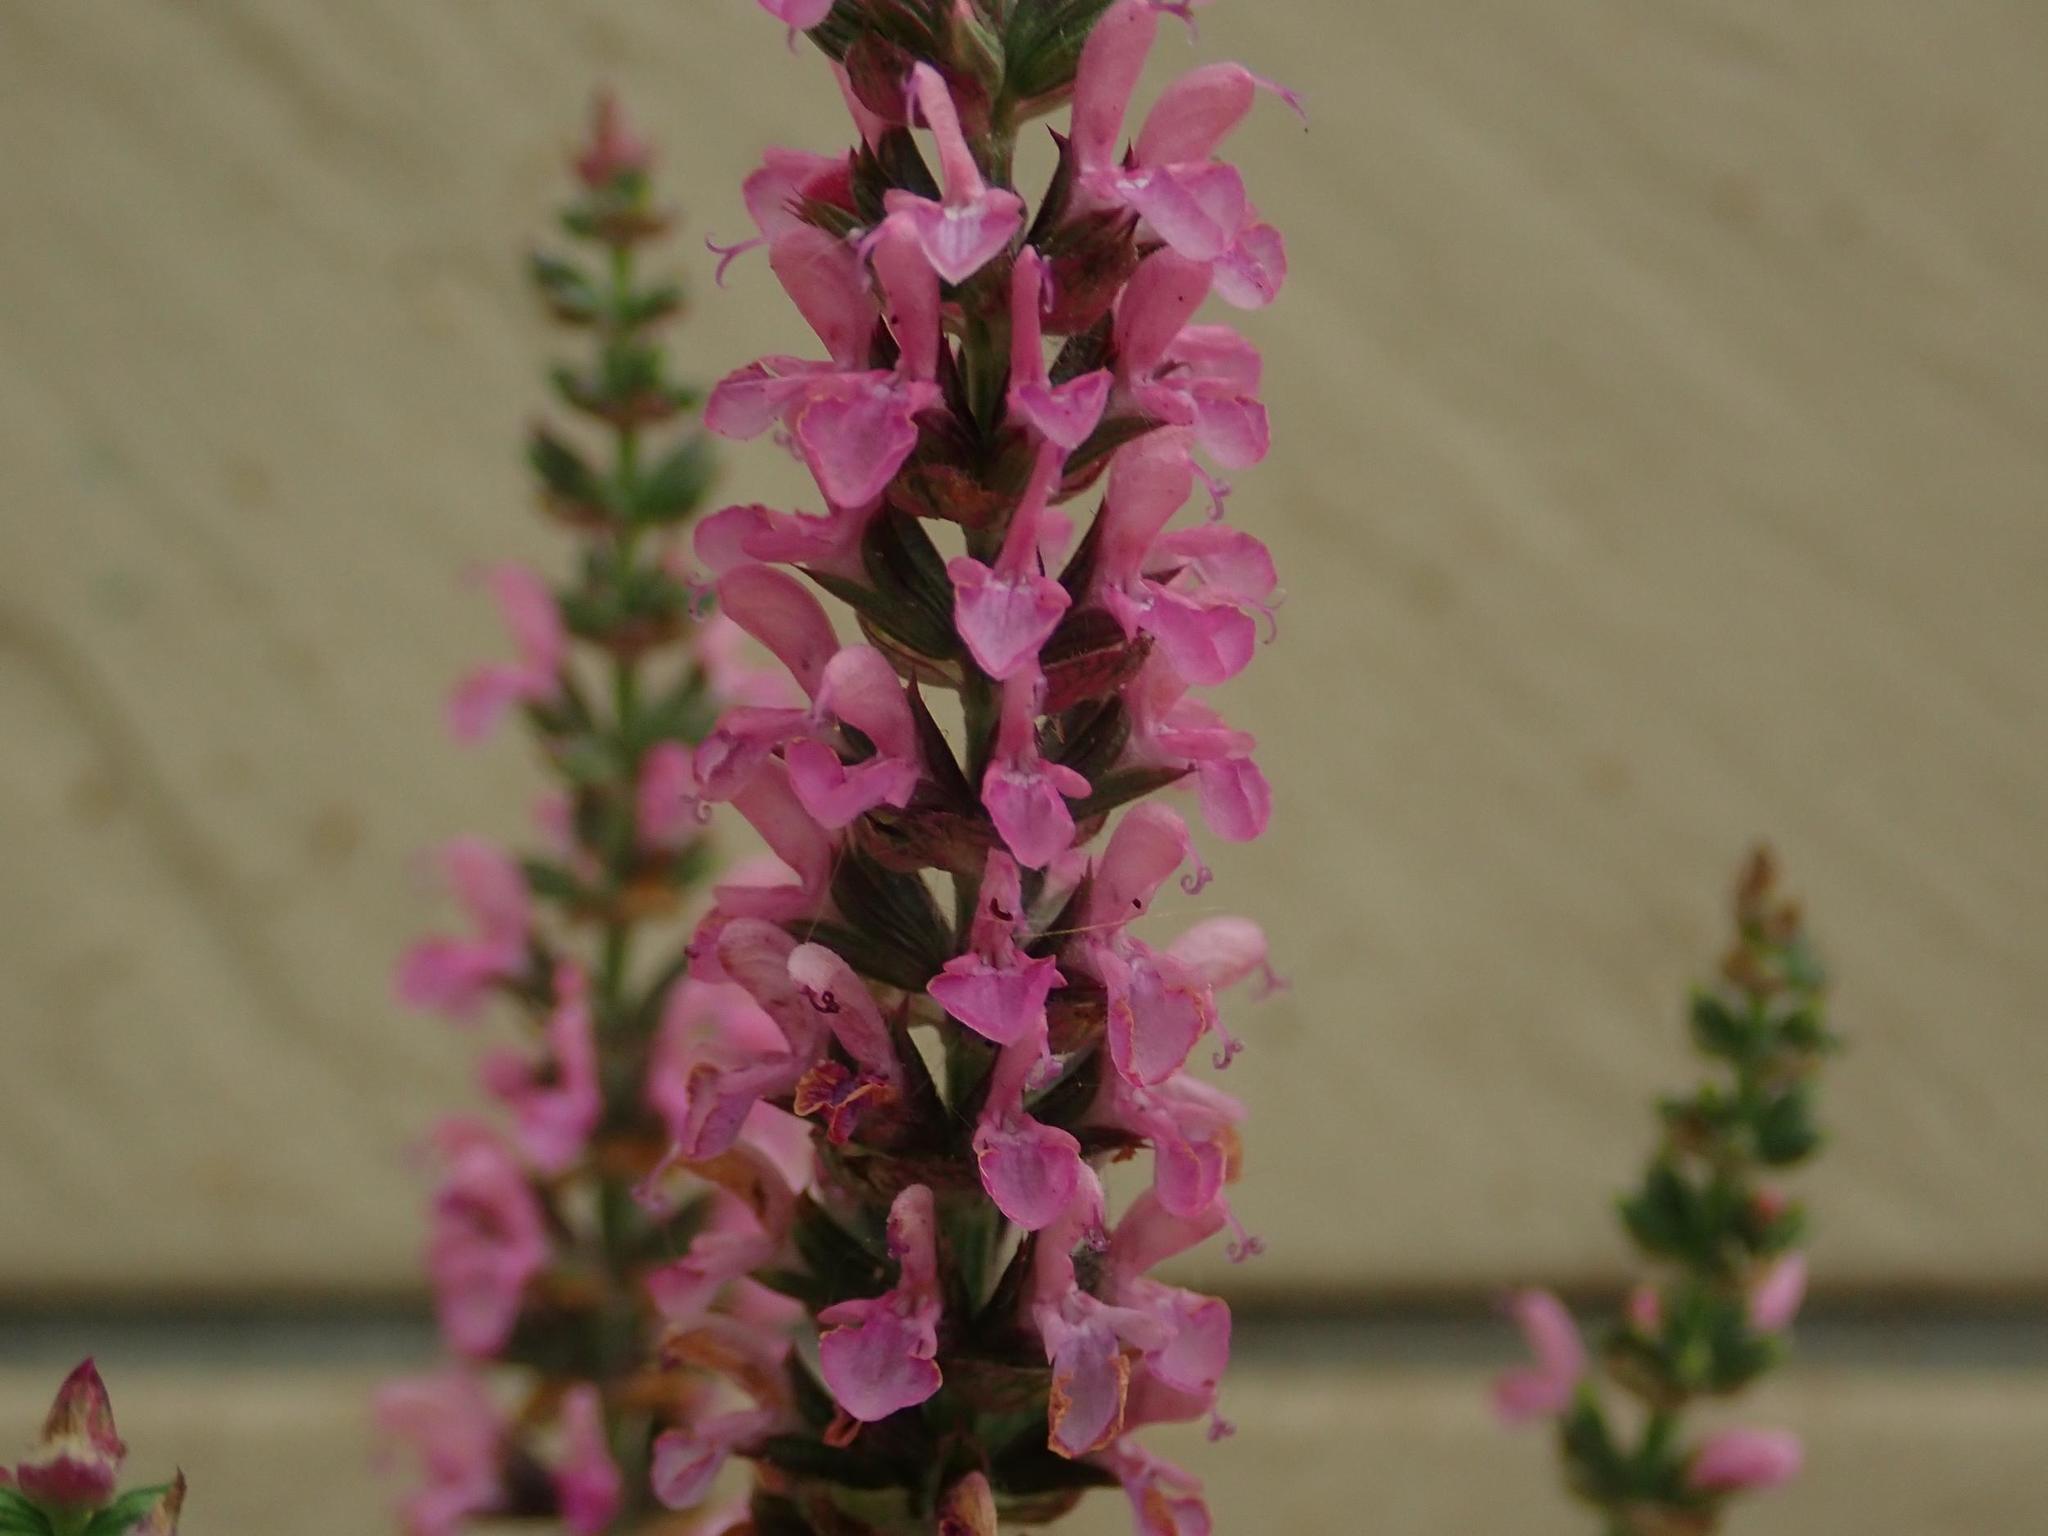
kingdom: Plantae
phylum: Tracheophyta
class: Magnoliopsida
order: Lamiales
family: Lamiaceae
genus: Salvia
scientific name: Salvia nemorosa
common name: Balkan clary
